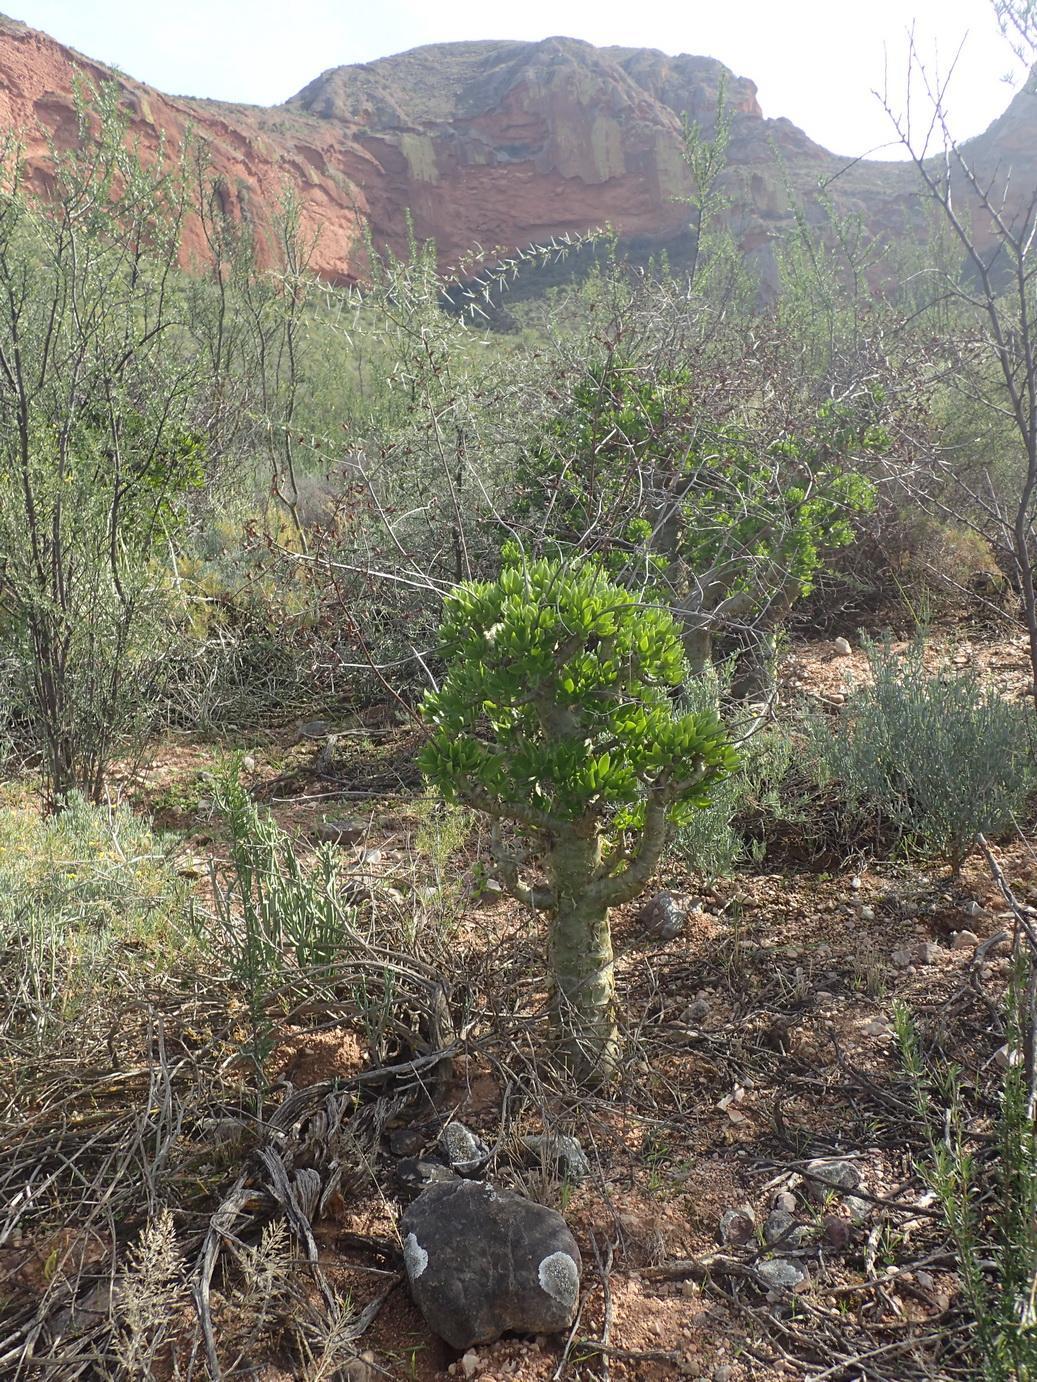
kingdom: Plantae
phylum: Tracheophyta
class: Magnoliopsida
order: Saxifragales
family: Crassulaceae
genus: Tylecodon
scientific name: Tylecodon paniculatus
